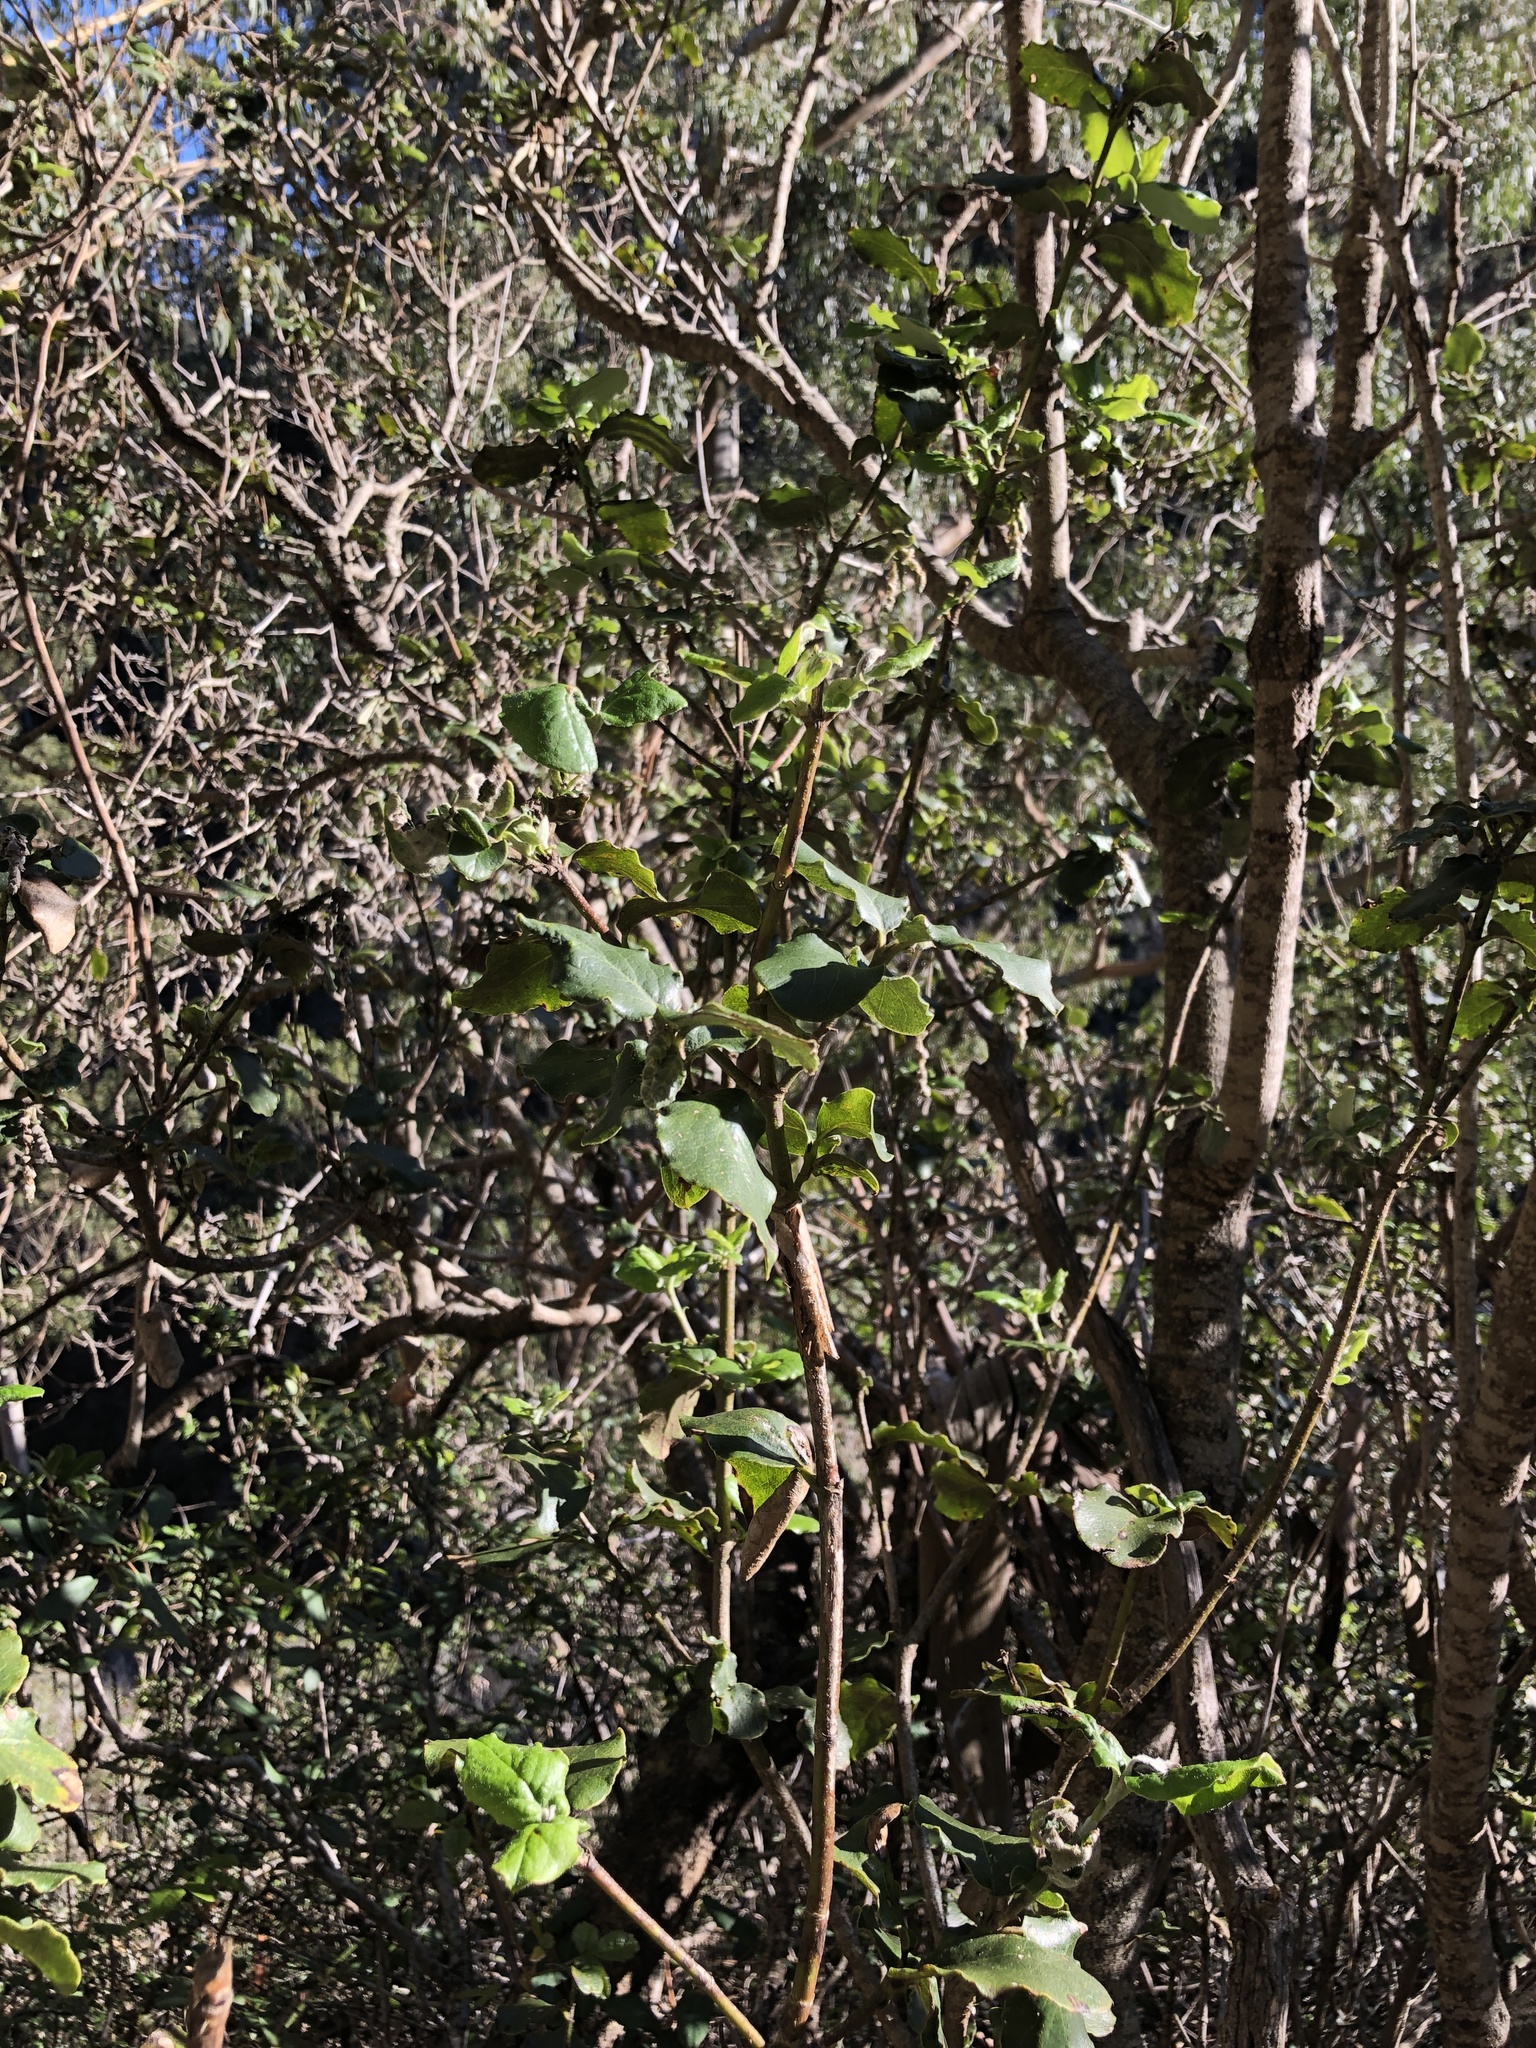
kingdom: Plantae
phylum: Tracheophyta
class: Magnoliopsida
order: Garryales
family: Garryaceae
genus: Garrya
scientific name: Garrya elliptica
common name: Silk-tassel
